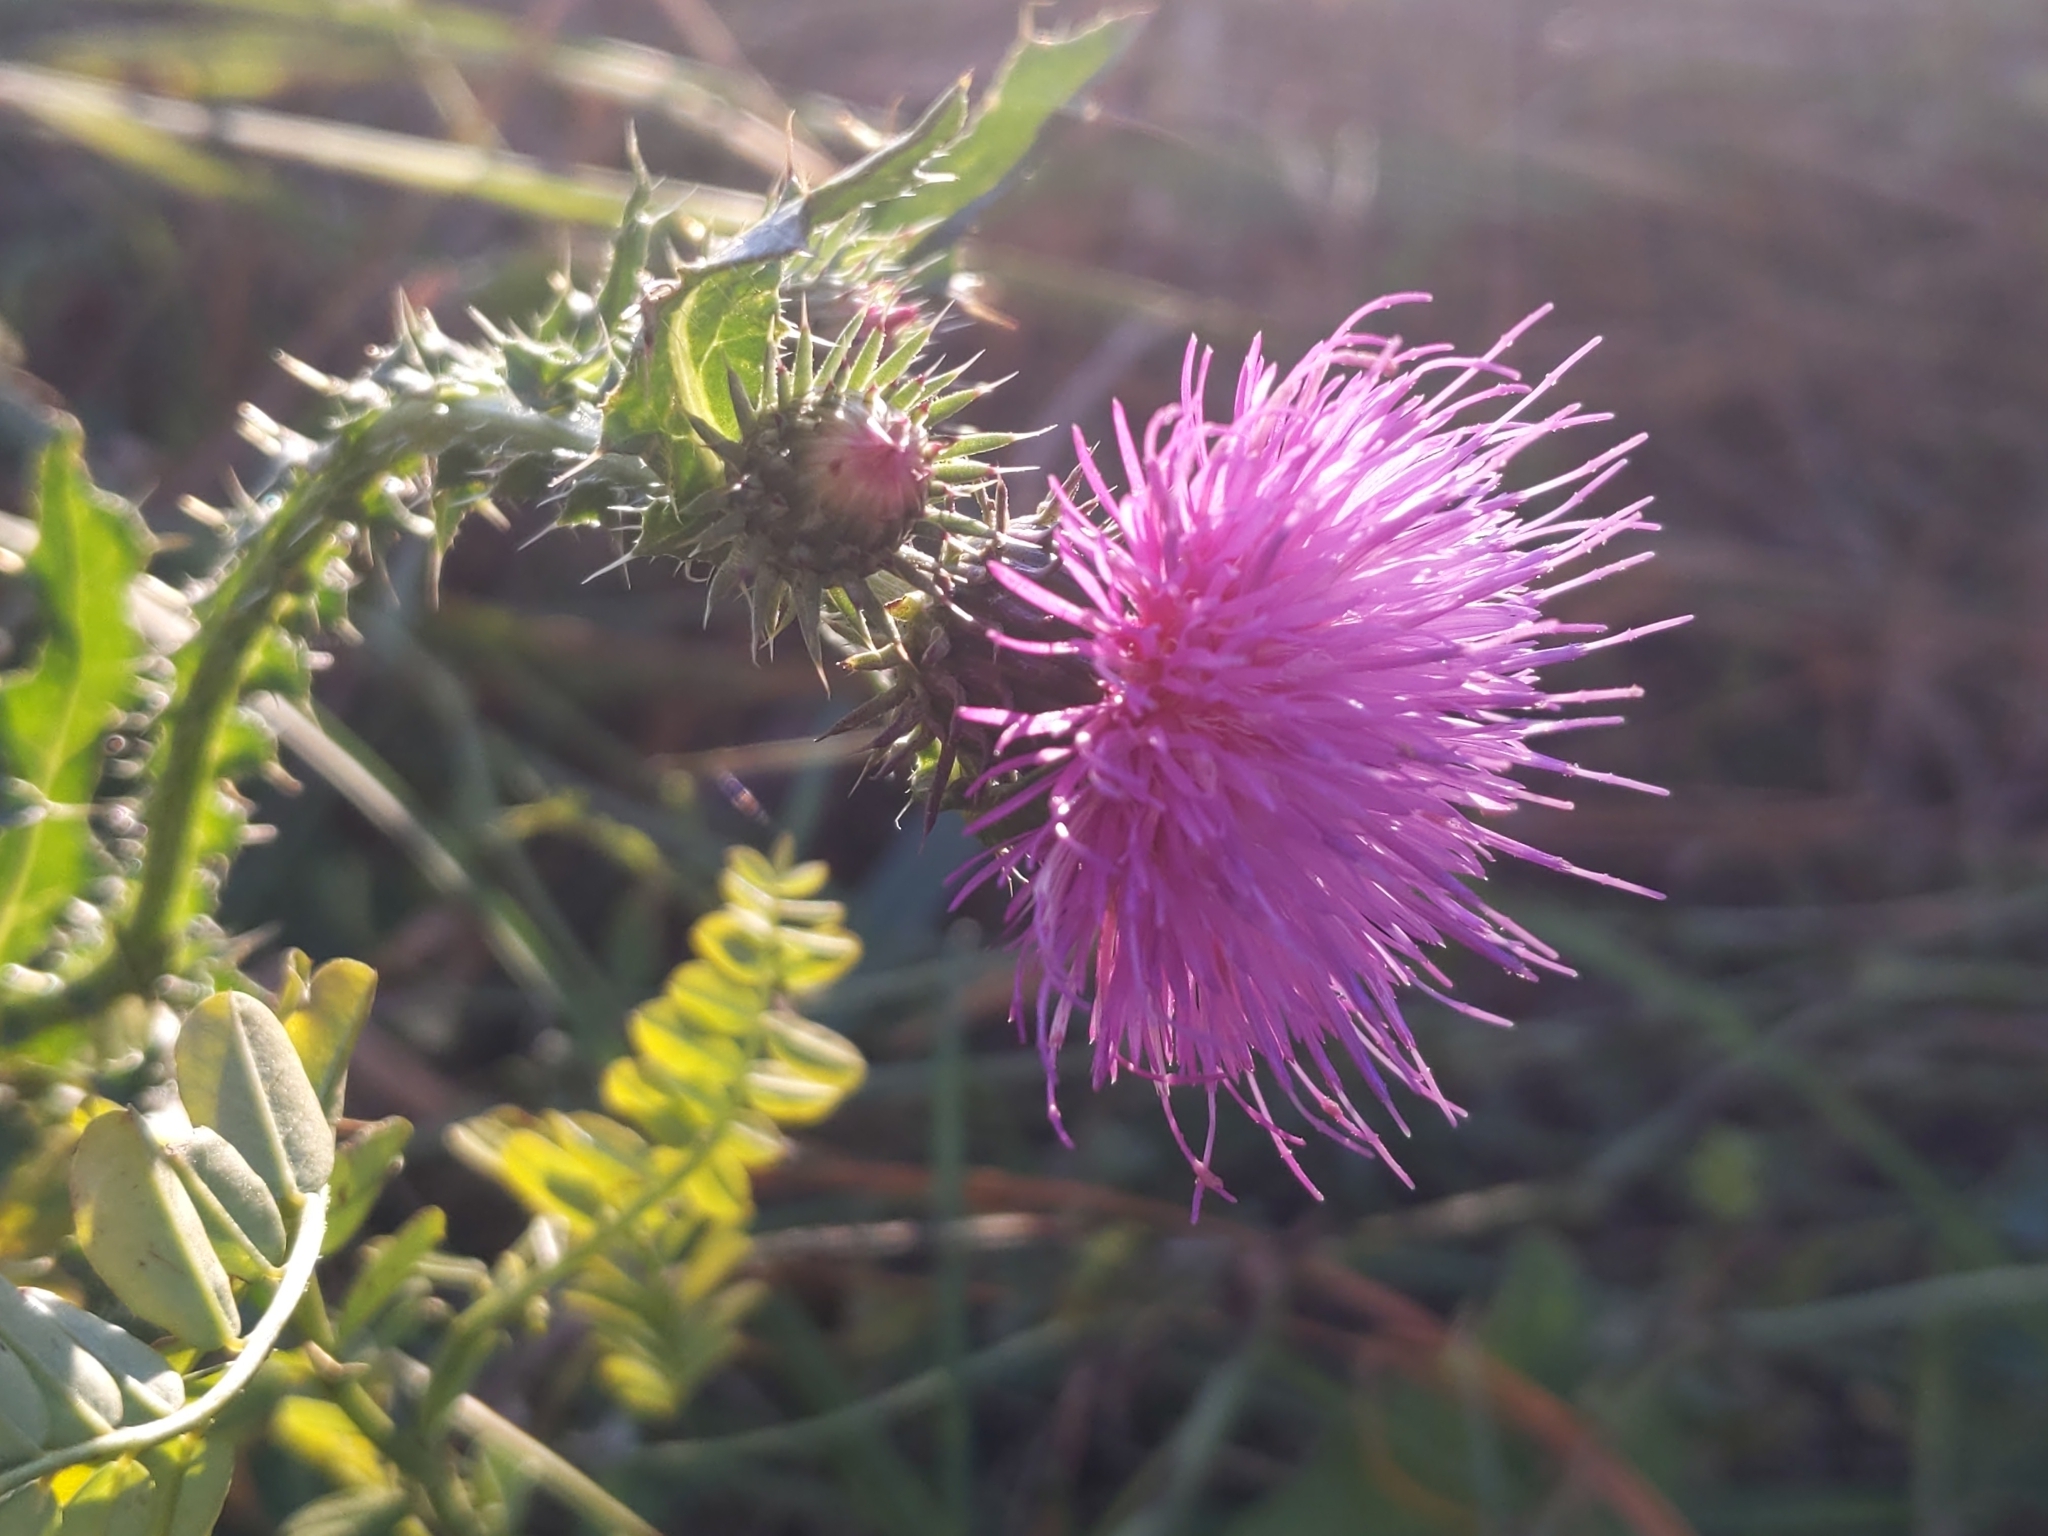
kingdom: Plantae
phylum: Tracheophyta
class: Magnoliopsida
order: Asterales
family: Asteraceae
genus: Carduus
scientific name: Carduus acanthoides
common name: Plumeless thistle
